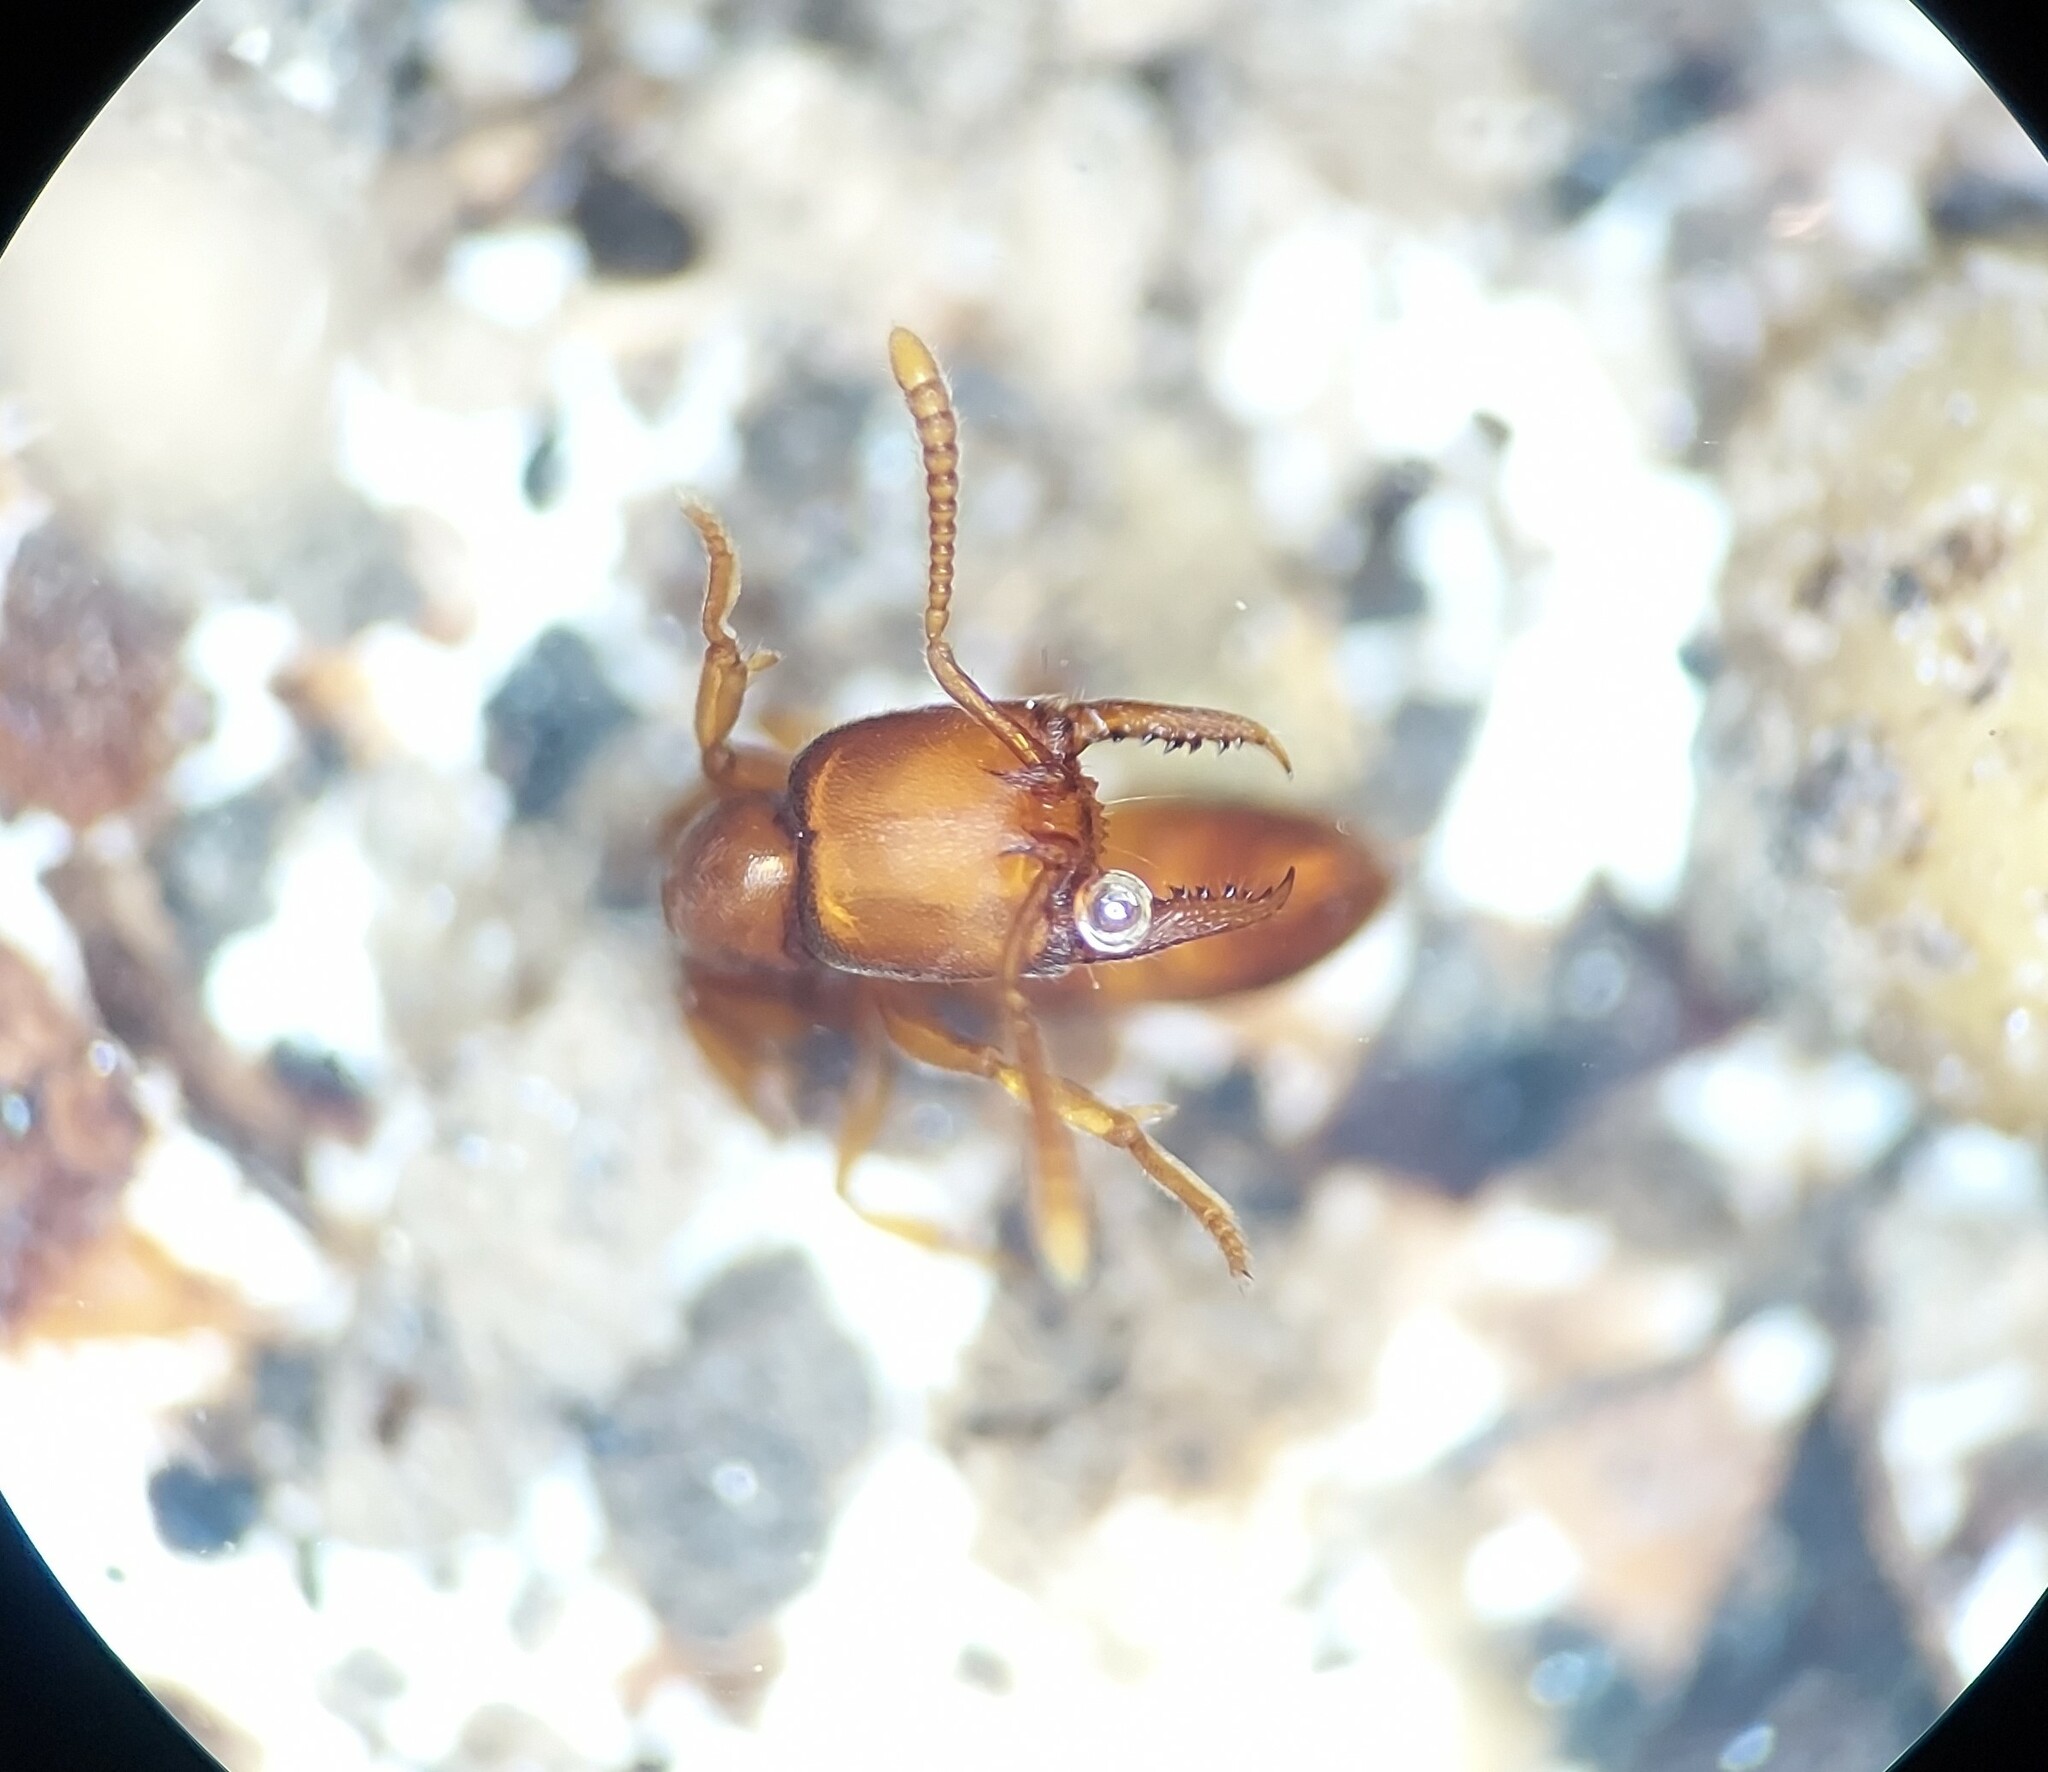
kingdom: Animalia
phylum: Arthropoda
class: Insecta
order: Hymenoptera
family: Formicidae
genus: Stigmatomma
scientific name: Stigmatomma pallipes
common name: Vampire ant
